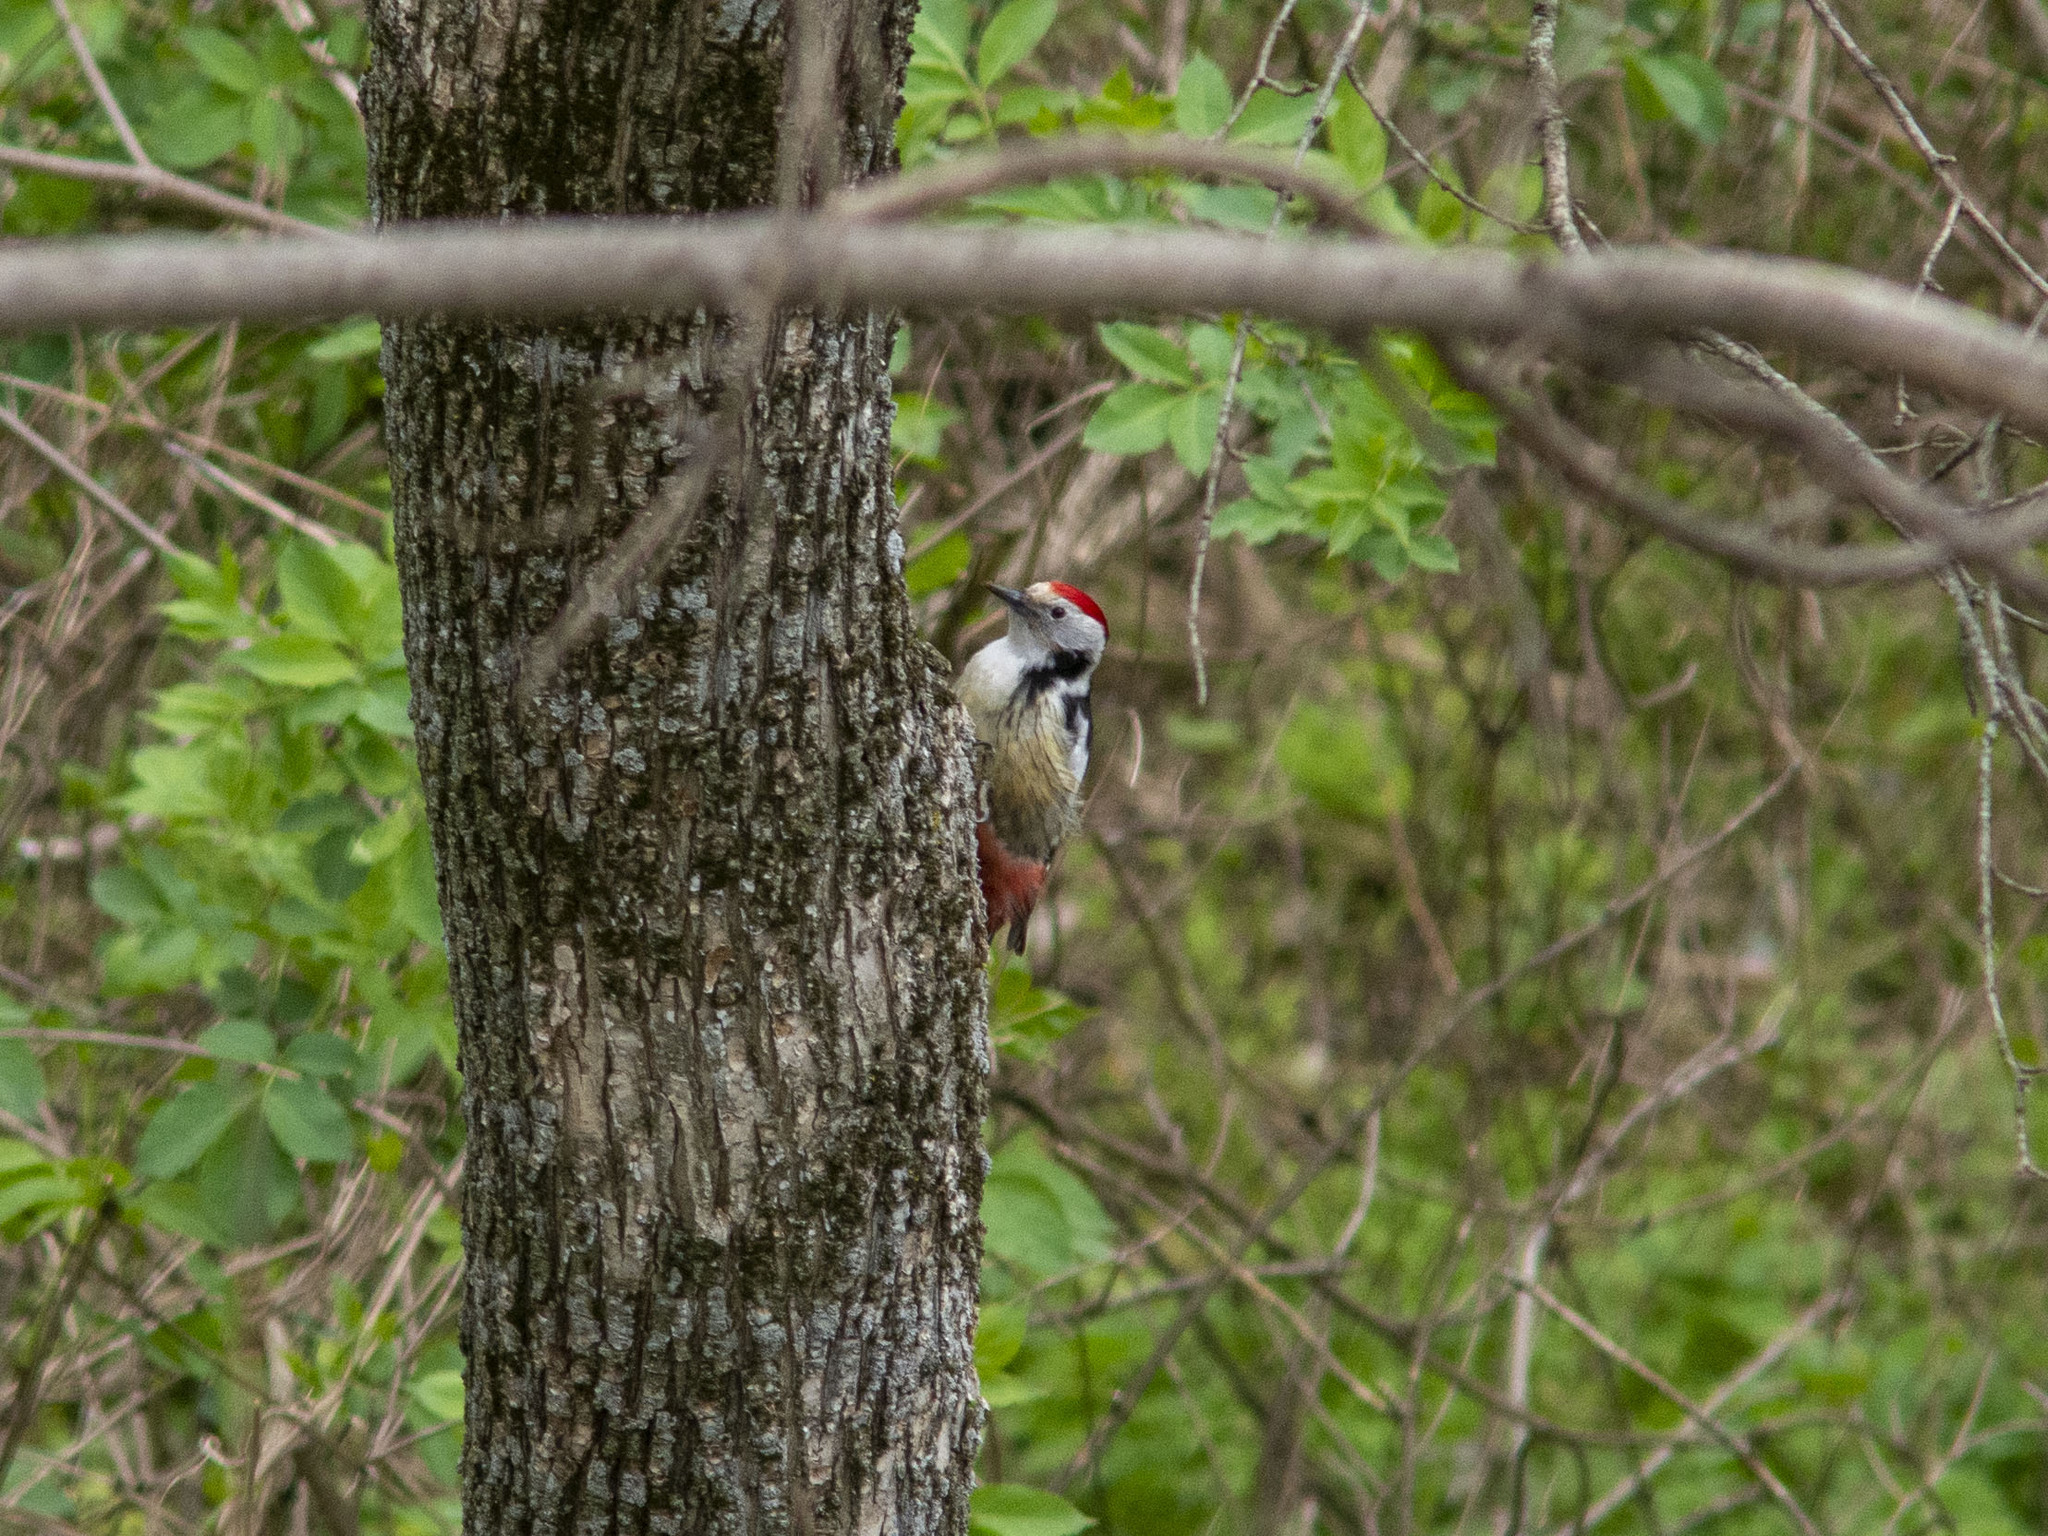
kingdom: Animalia
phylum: Chordata
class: Aves
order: Piciformes
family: Picidae
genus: Dendrocoptes
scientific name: Dendrocoptes medius
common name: Middle spotted woodpecker
